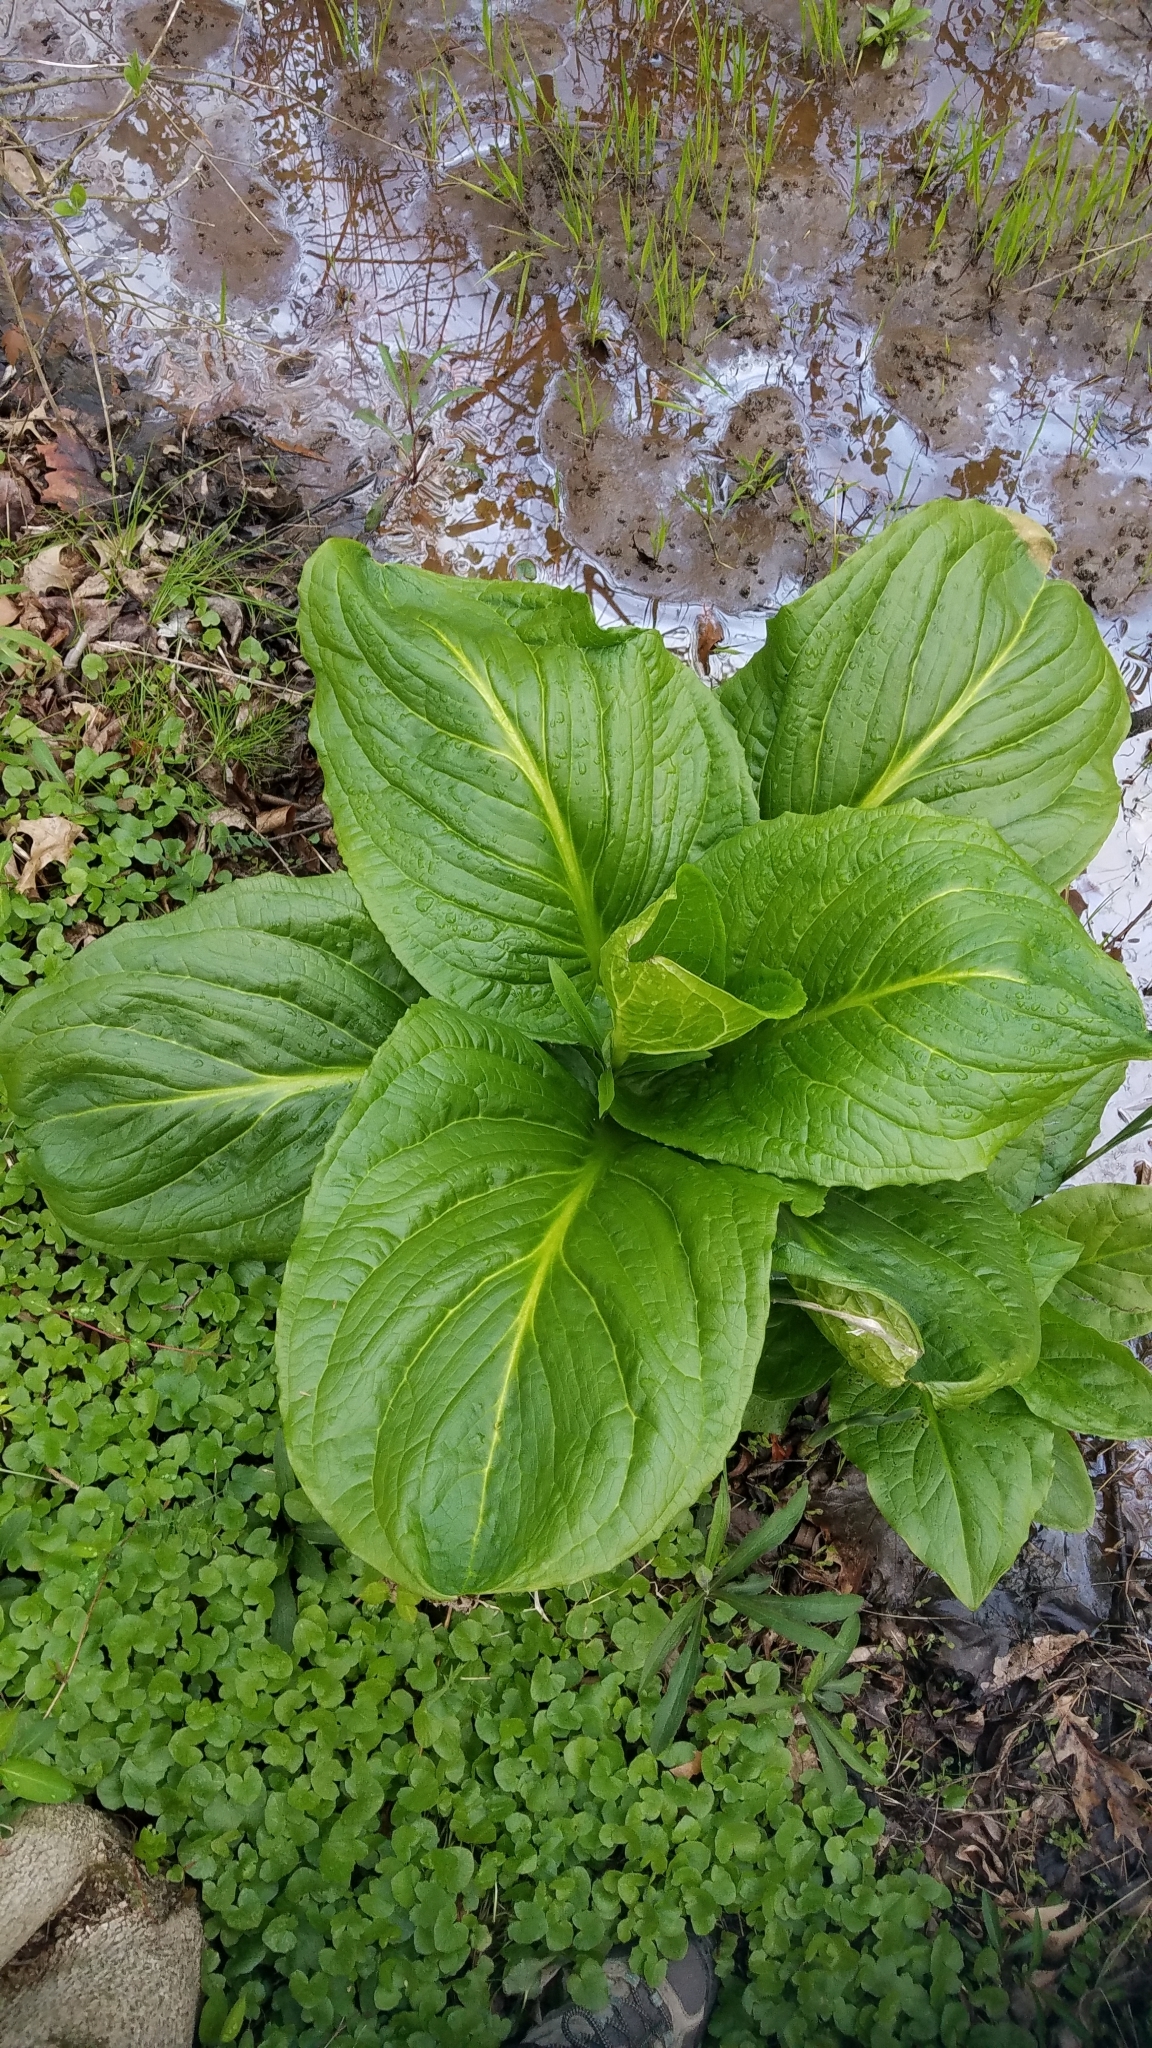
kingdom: Plantae
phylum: Tracheophyta
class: Liliopsida
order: Alismatales
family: Araceae
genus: Symplocarpus
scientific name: Symplocarpus foetidus
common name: Eastern skunk cabbage
